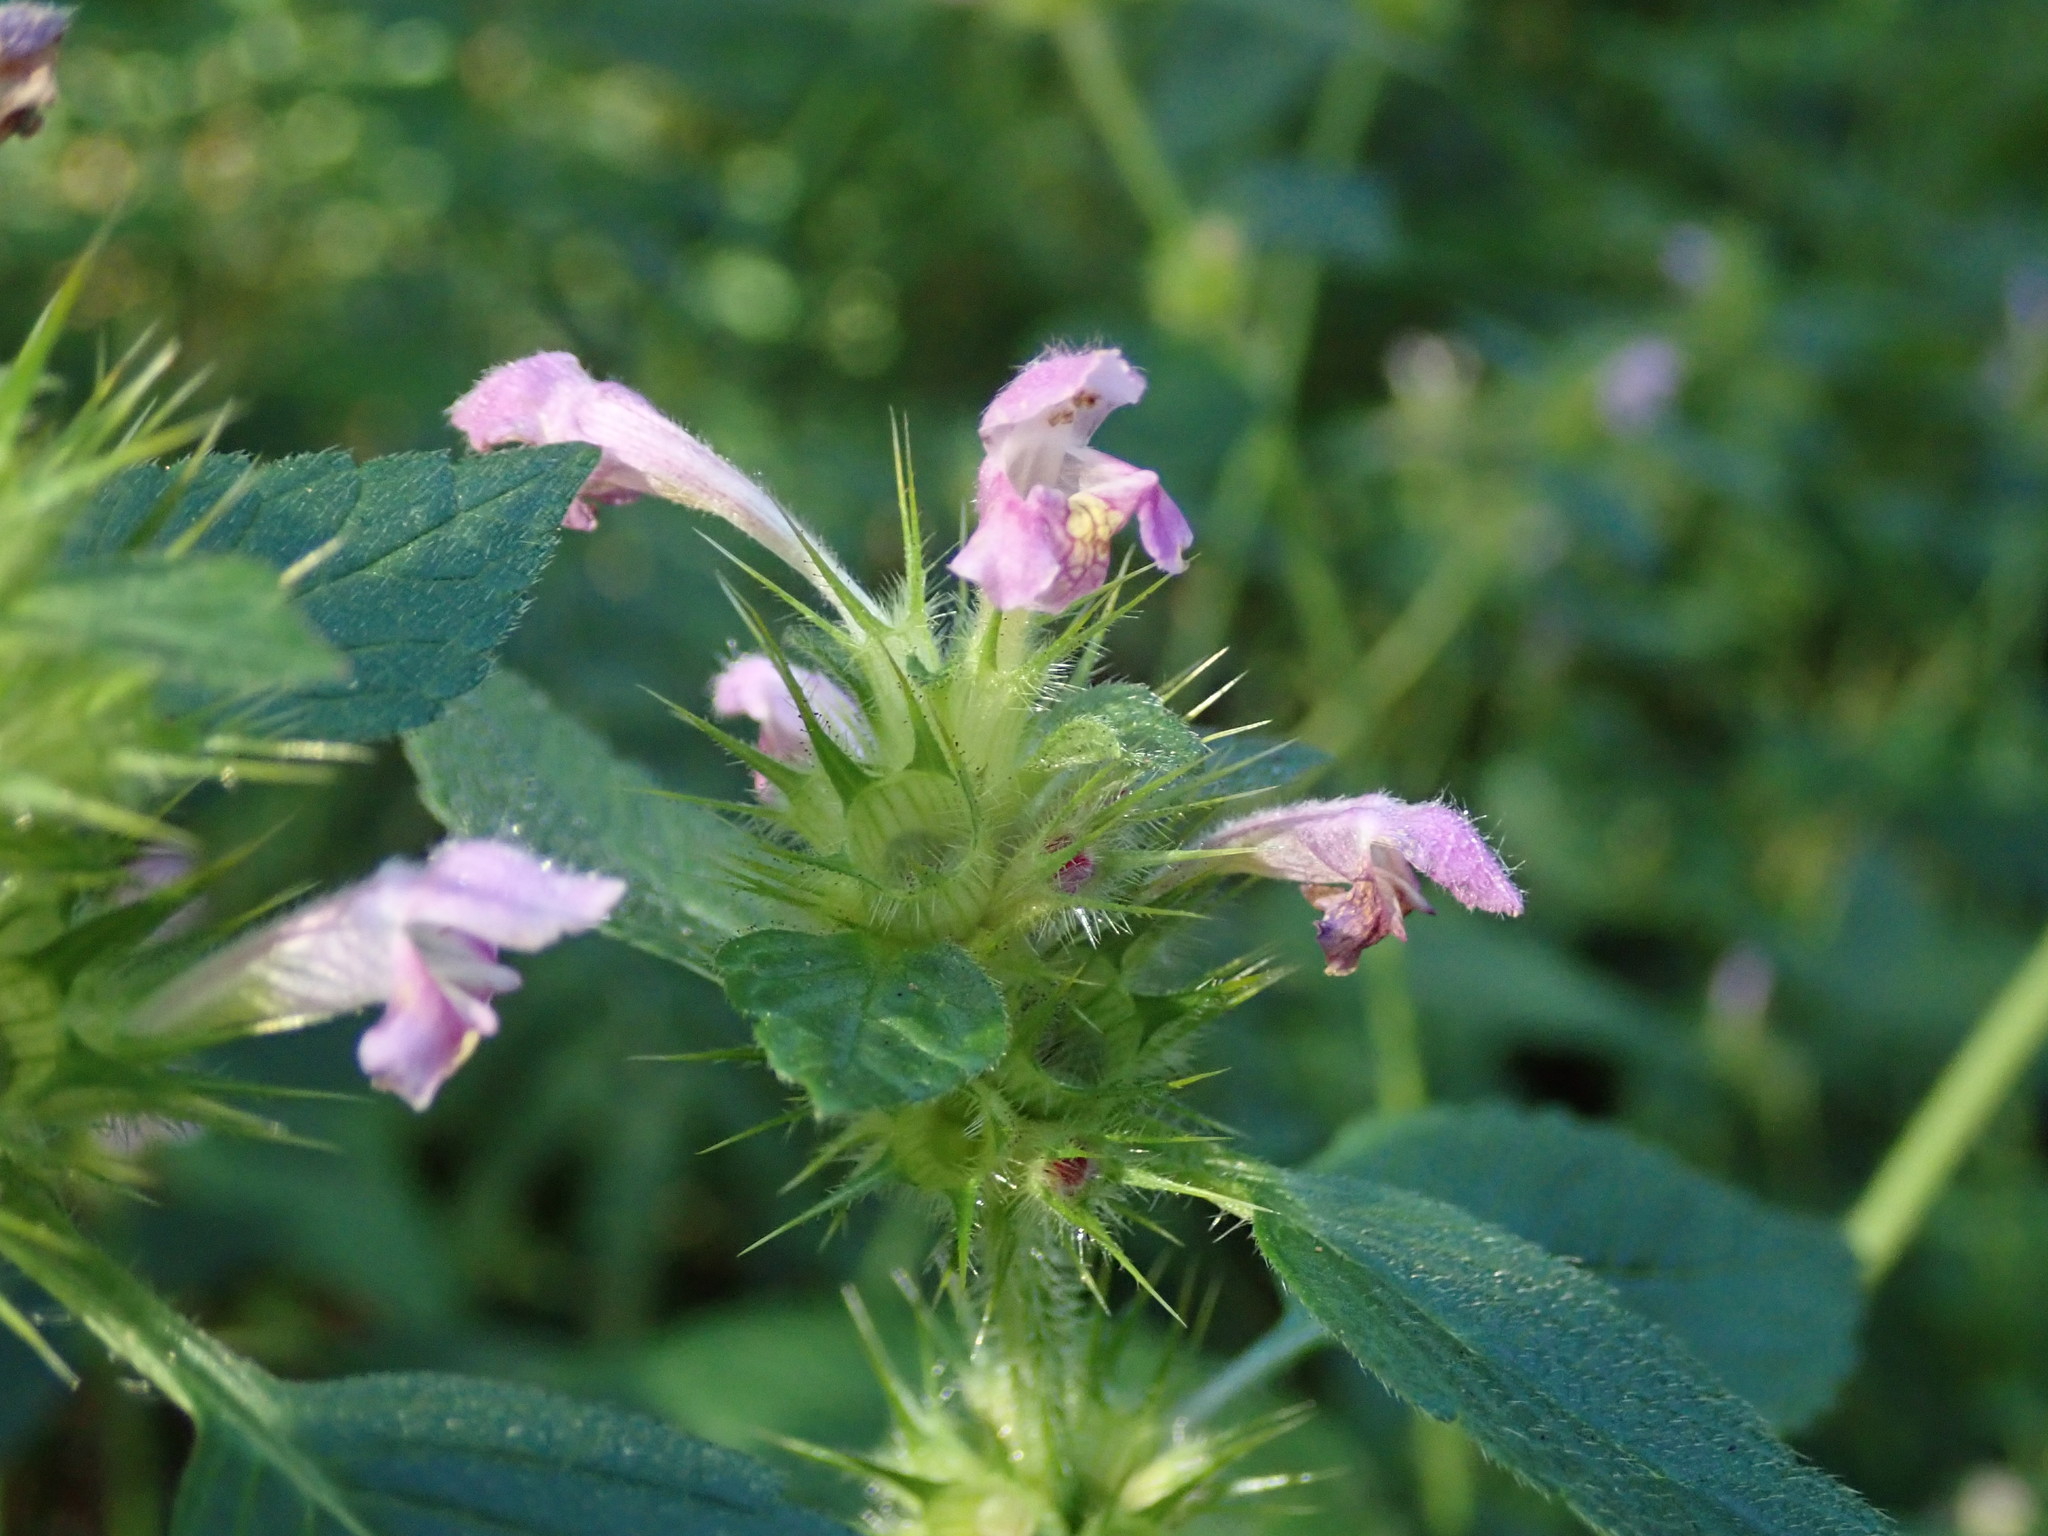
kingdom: Plantae
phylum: Tracheophyta
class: Magnoliopsida
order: Lamiales
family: Lamiaceae
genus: Galeopsis
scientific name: Galeopsis tetrahit
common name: Common hemp-nettle
